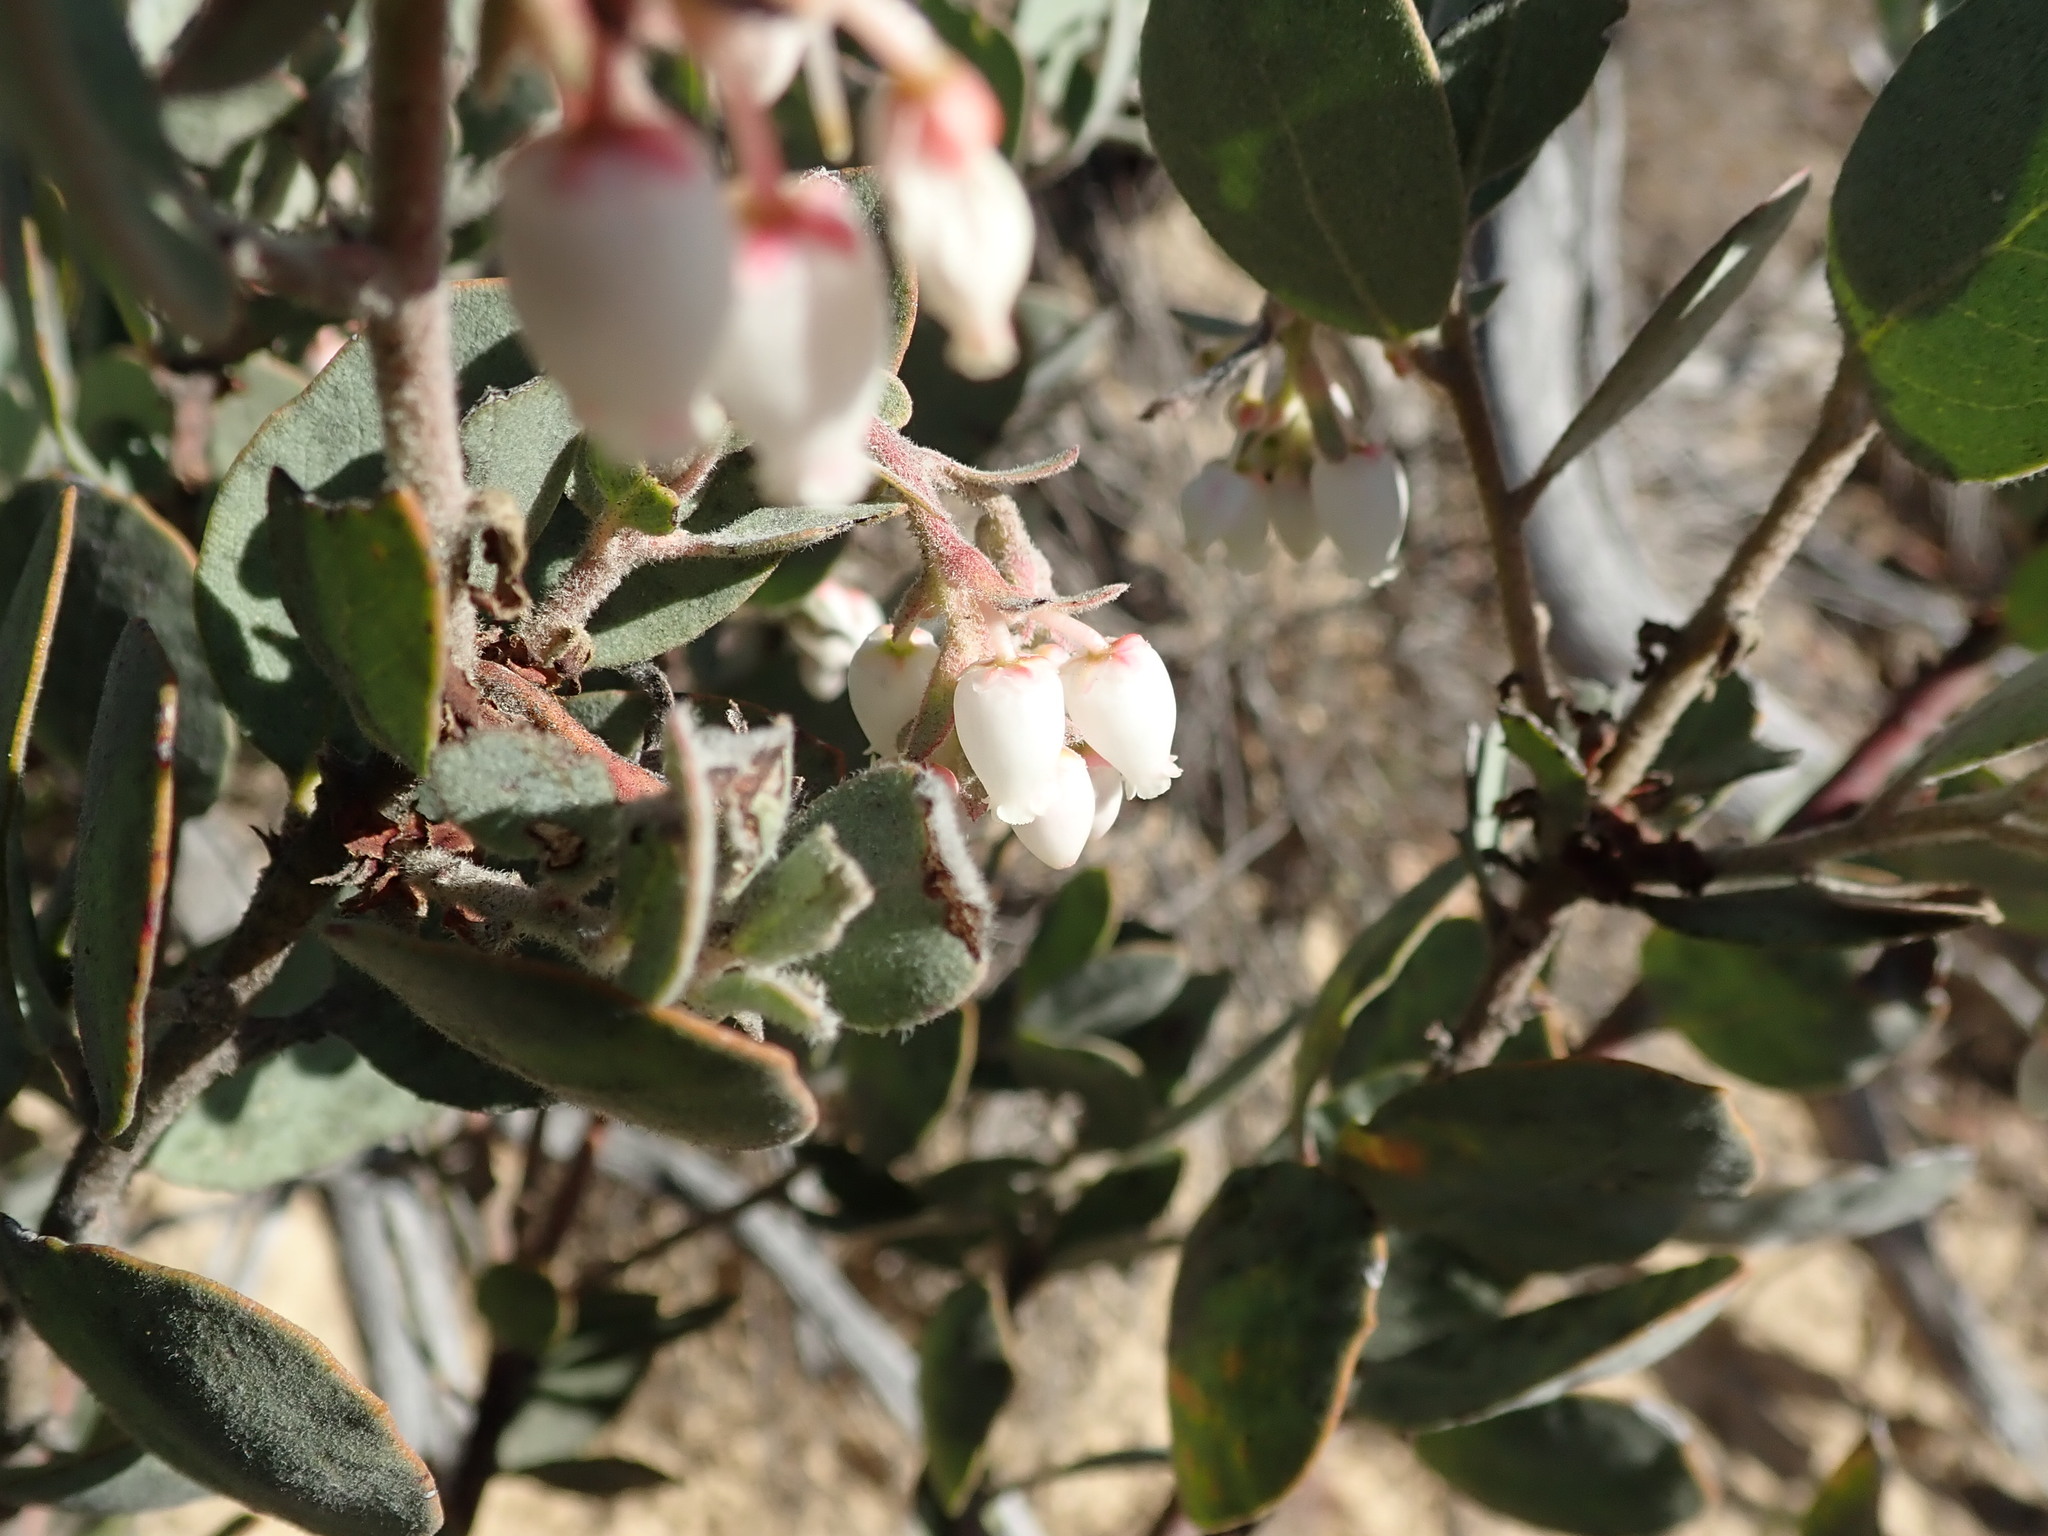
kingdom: Plantae
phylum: Tracheophyta
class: Magnoliopsida
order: Ericales
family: Ericaceae
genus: Arctostaphylos
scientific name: Arctostaphylos silvicola
